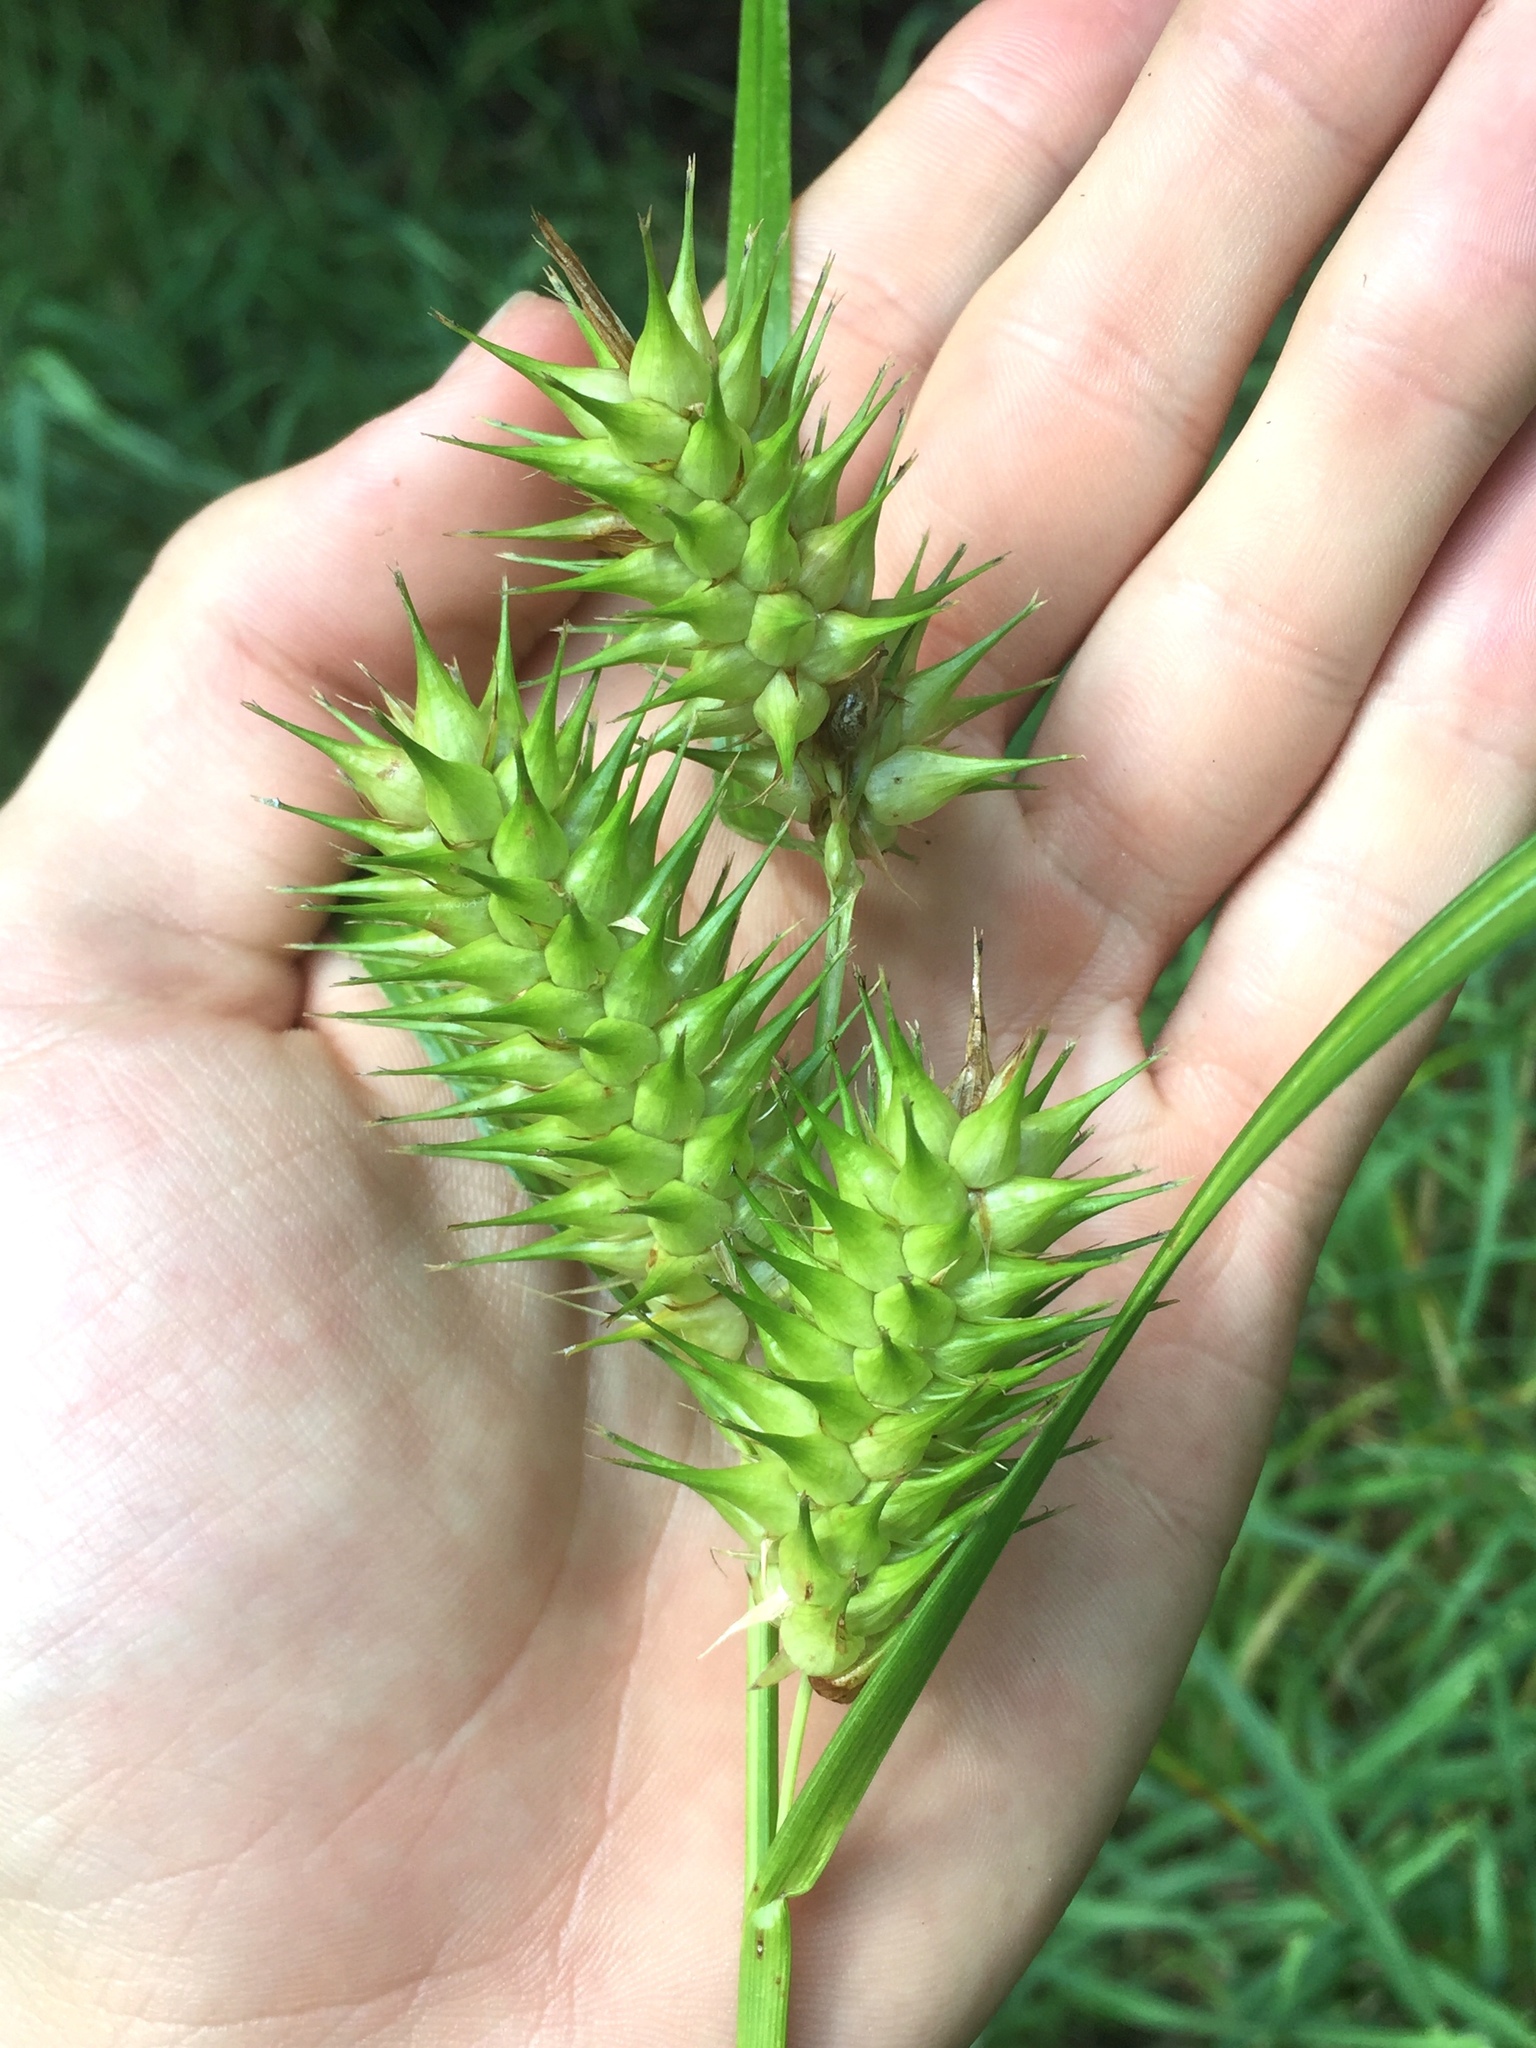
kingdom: Plantae
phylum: Tracheophyta
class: Liliopsida
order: Poales
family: Cyperaceae
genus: Carex
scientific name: Carex lupulina
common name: Hop sedge
